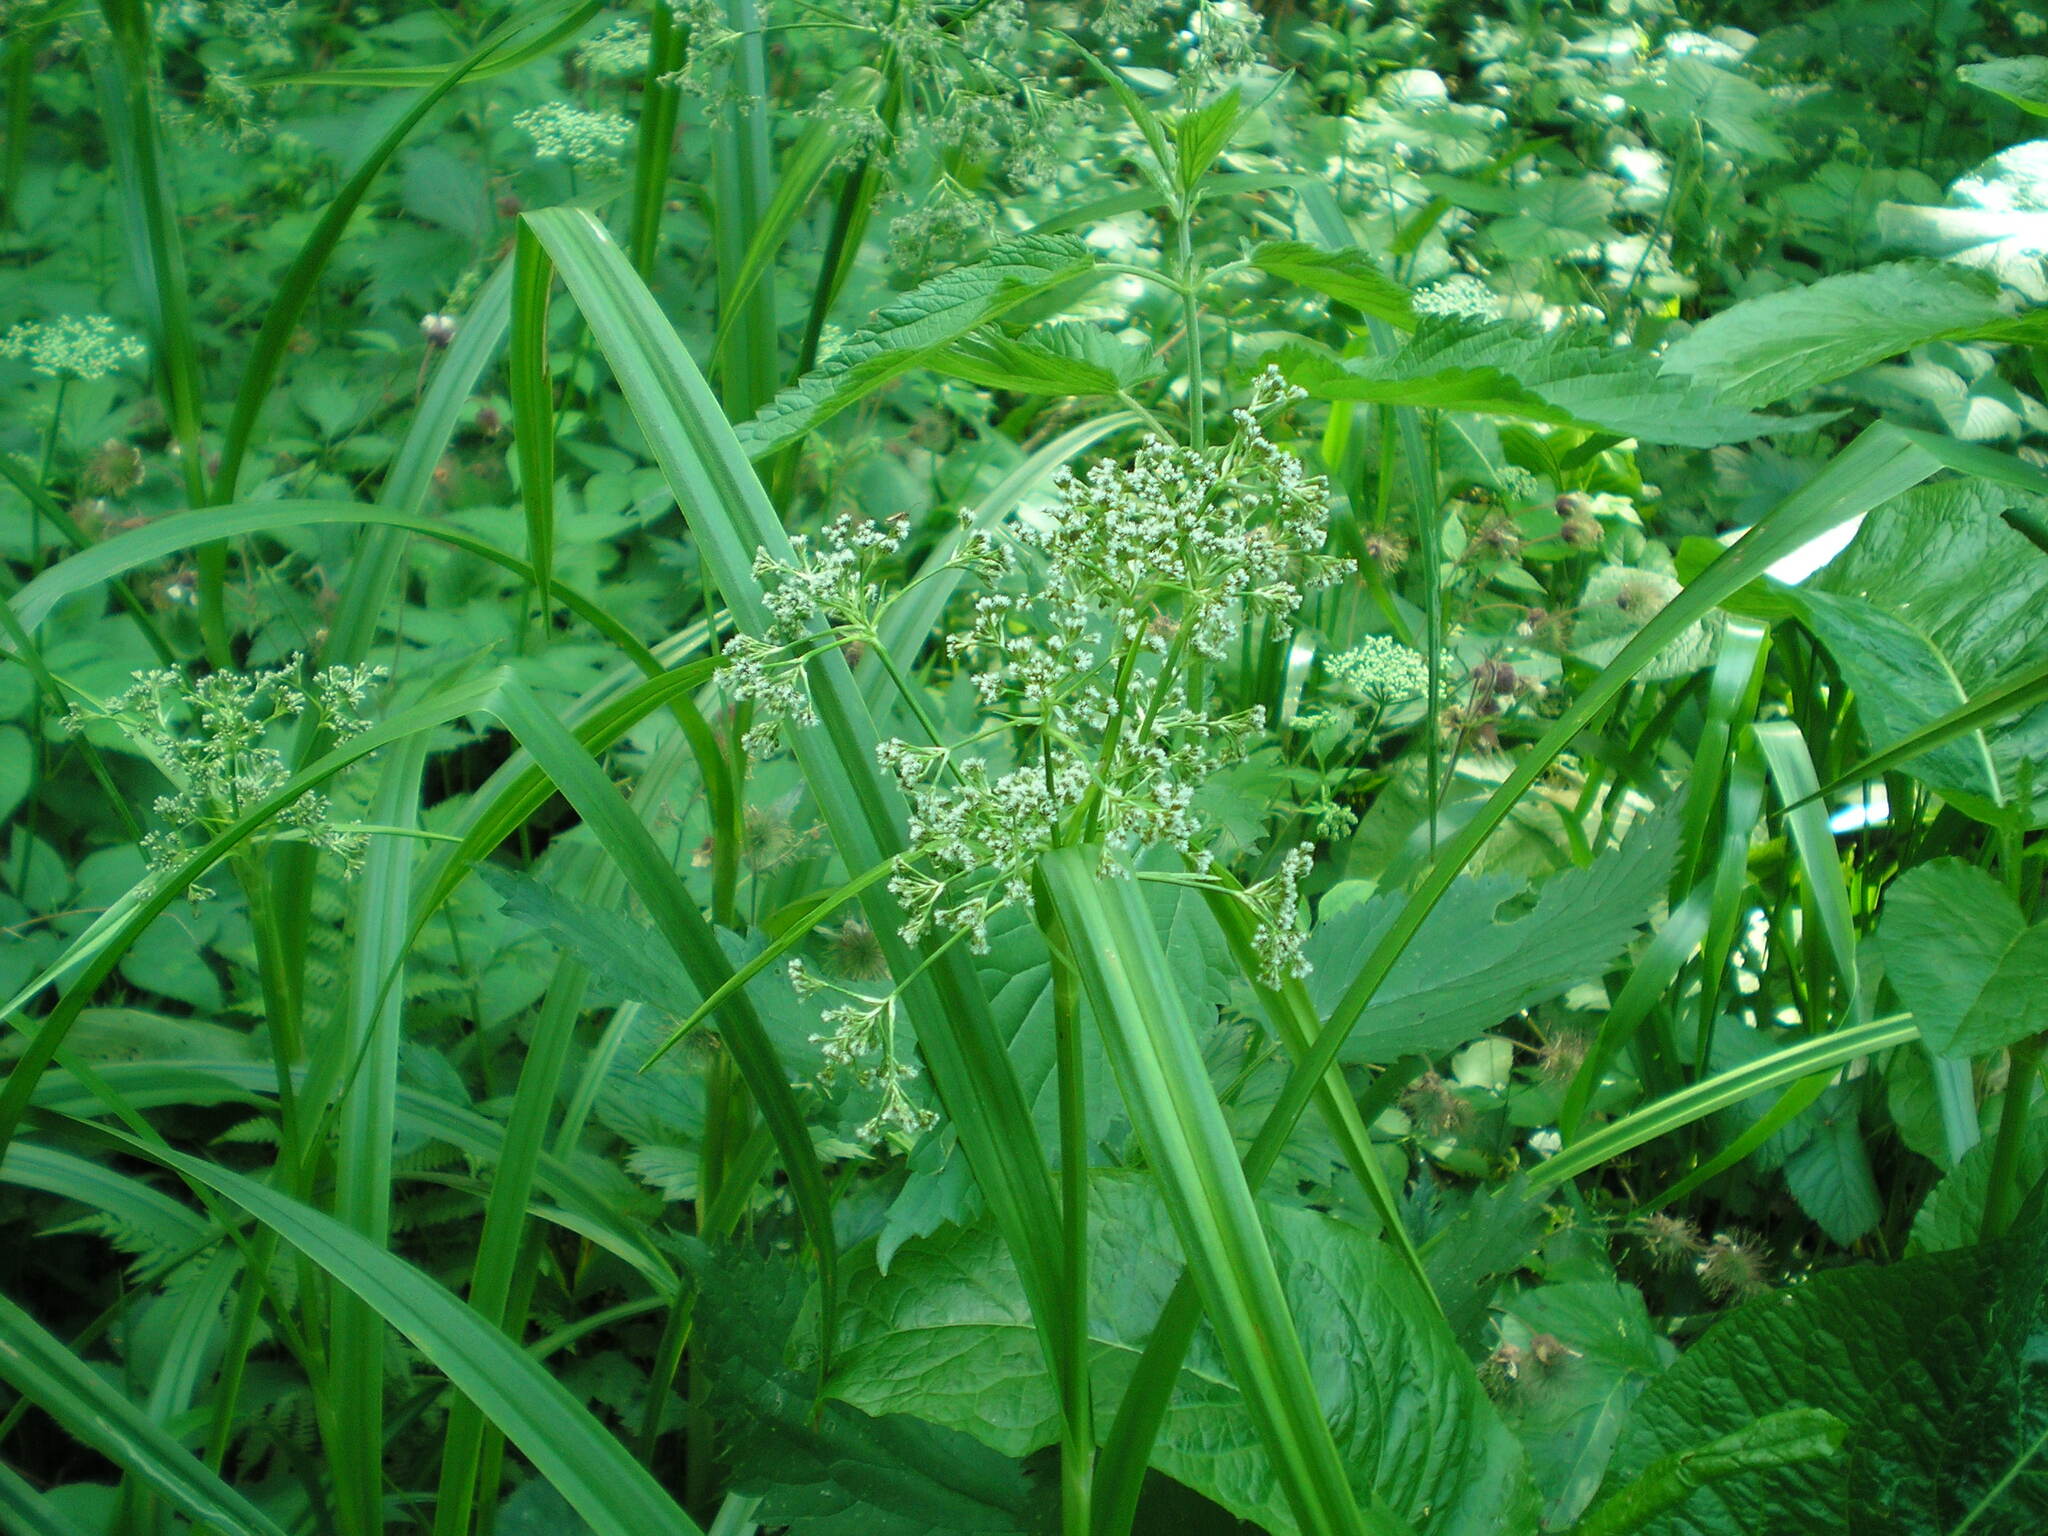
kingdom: Plantae
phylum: Tracheophyta
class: Liliopsida
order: Poales
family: Cyperaceae
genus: Scirpus
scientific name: Scirpus sylvaticus
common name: Wood club-rush
